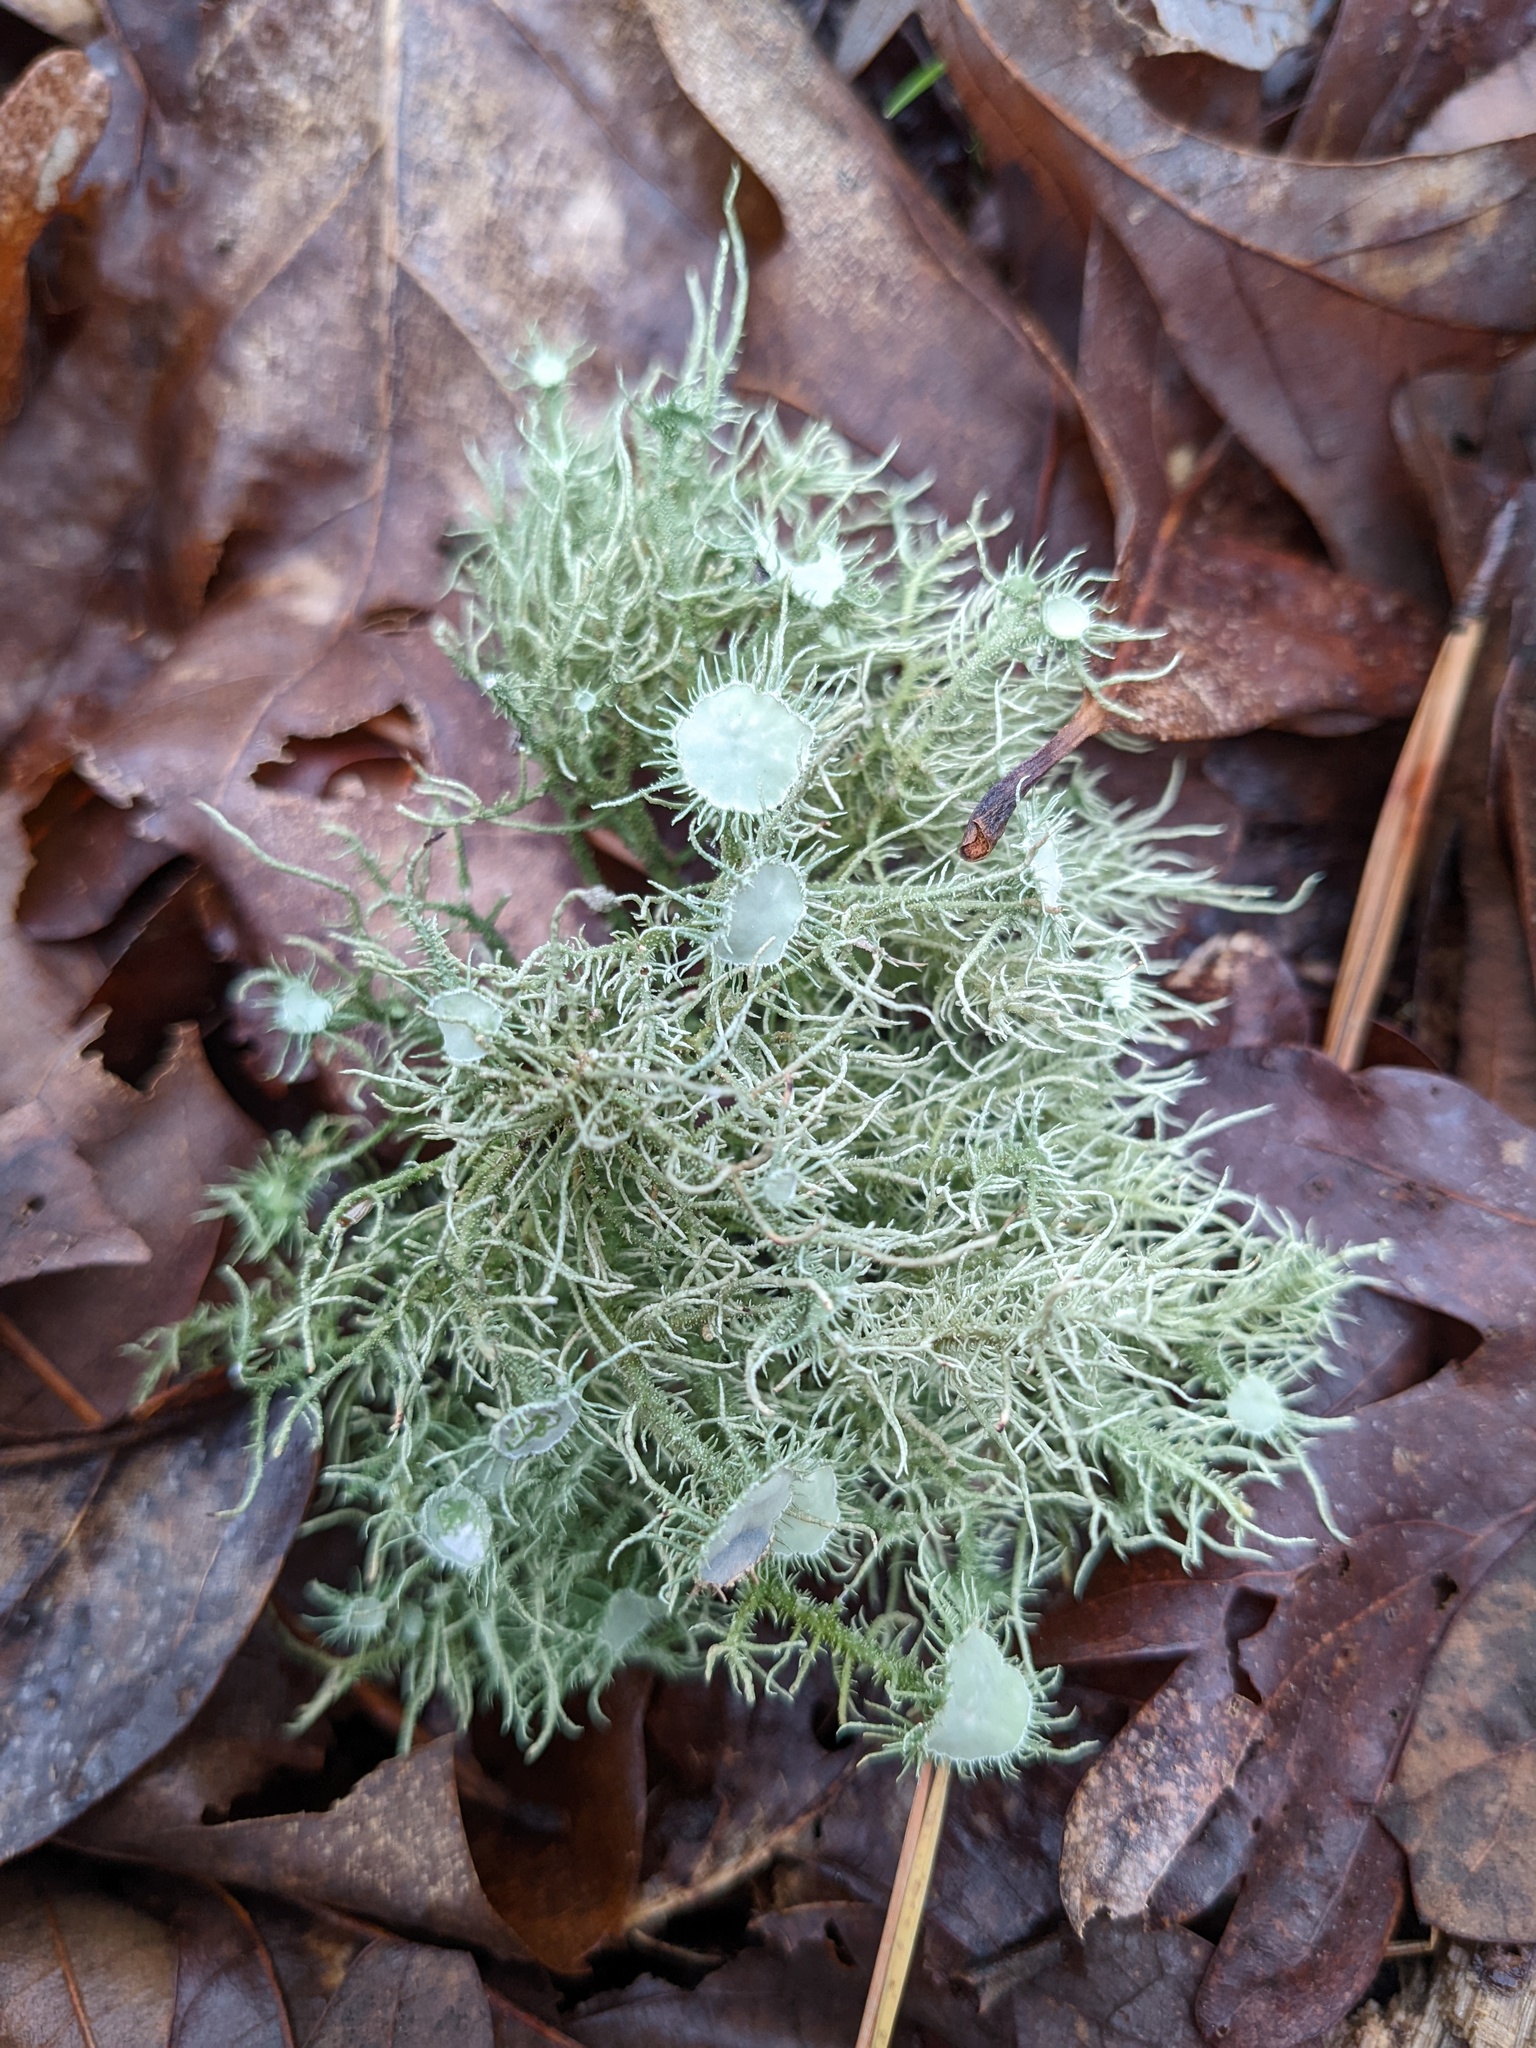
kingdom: Fungi
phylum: Ascomycota
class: Lecanoromycetes
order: Lecanorales
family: Parmeliaceae
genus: Usnea
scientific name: Usnea strigosa
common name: Bushy beard lichen
